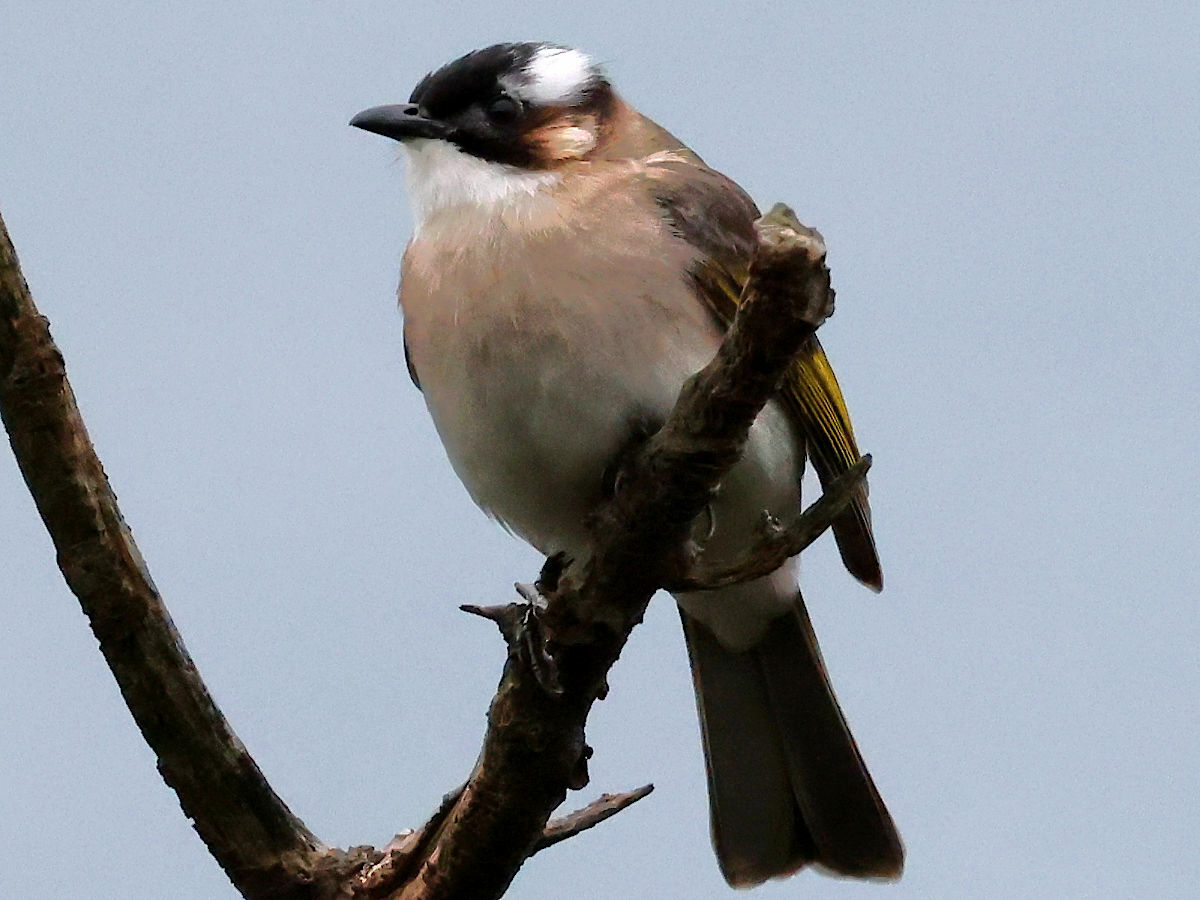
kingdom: Animalia
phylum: Chordata
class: Aves
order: Passeriformes
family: Pycnonotidae
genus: Pycnonotus
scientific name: Pycnonotus sinensis
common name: Light-vented bulbul
